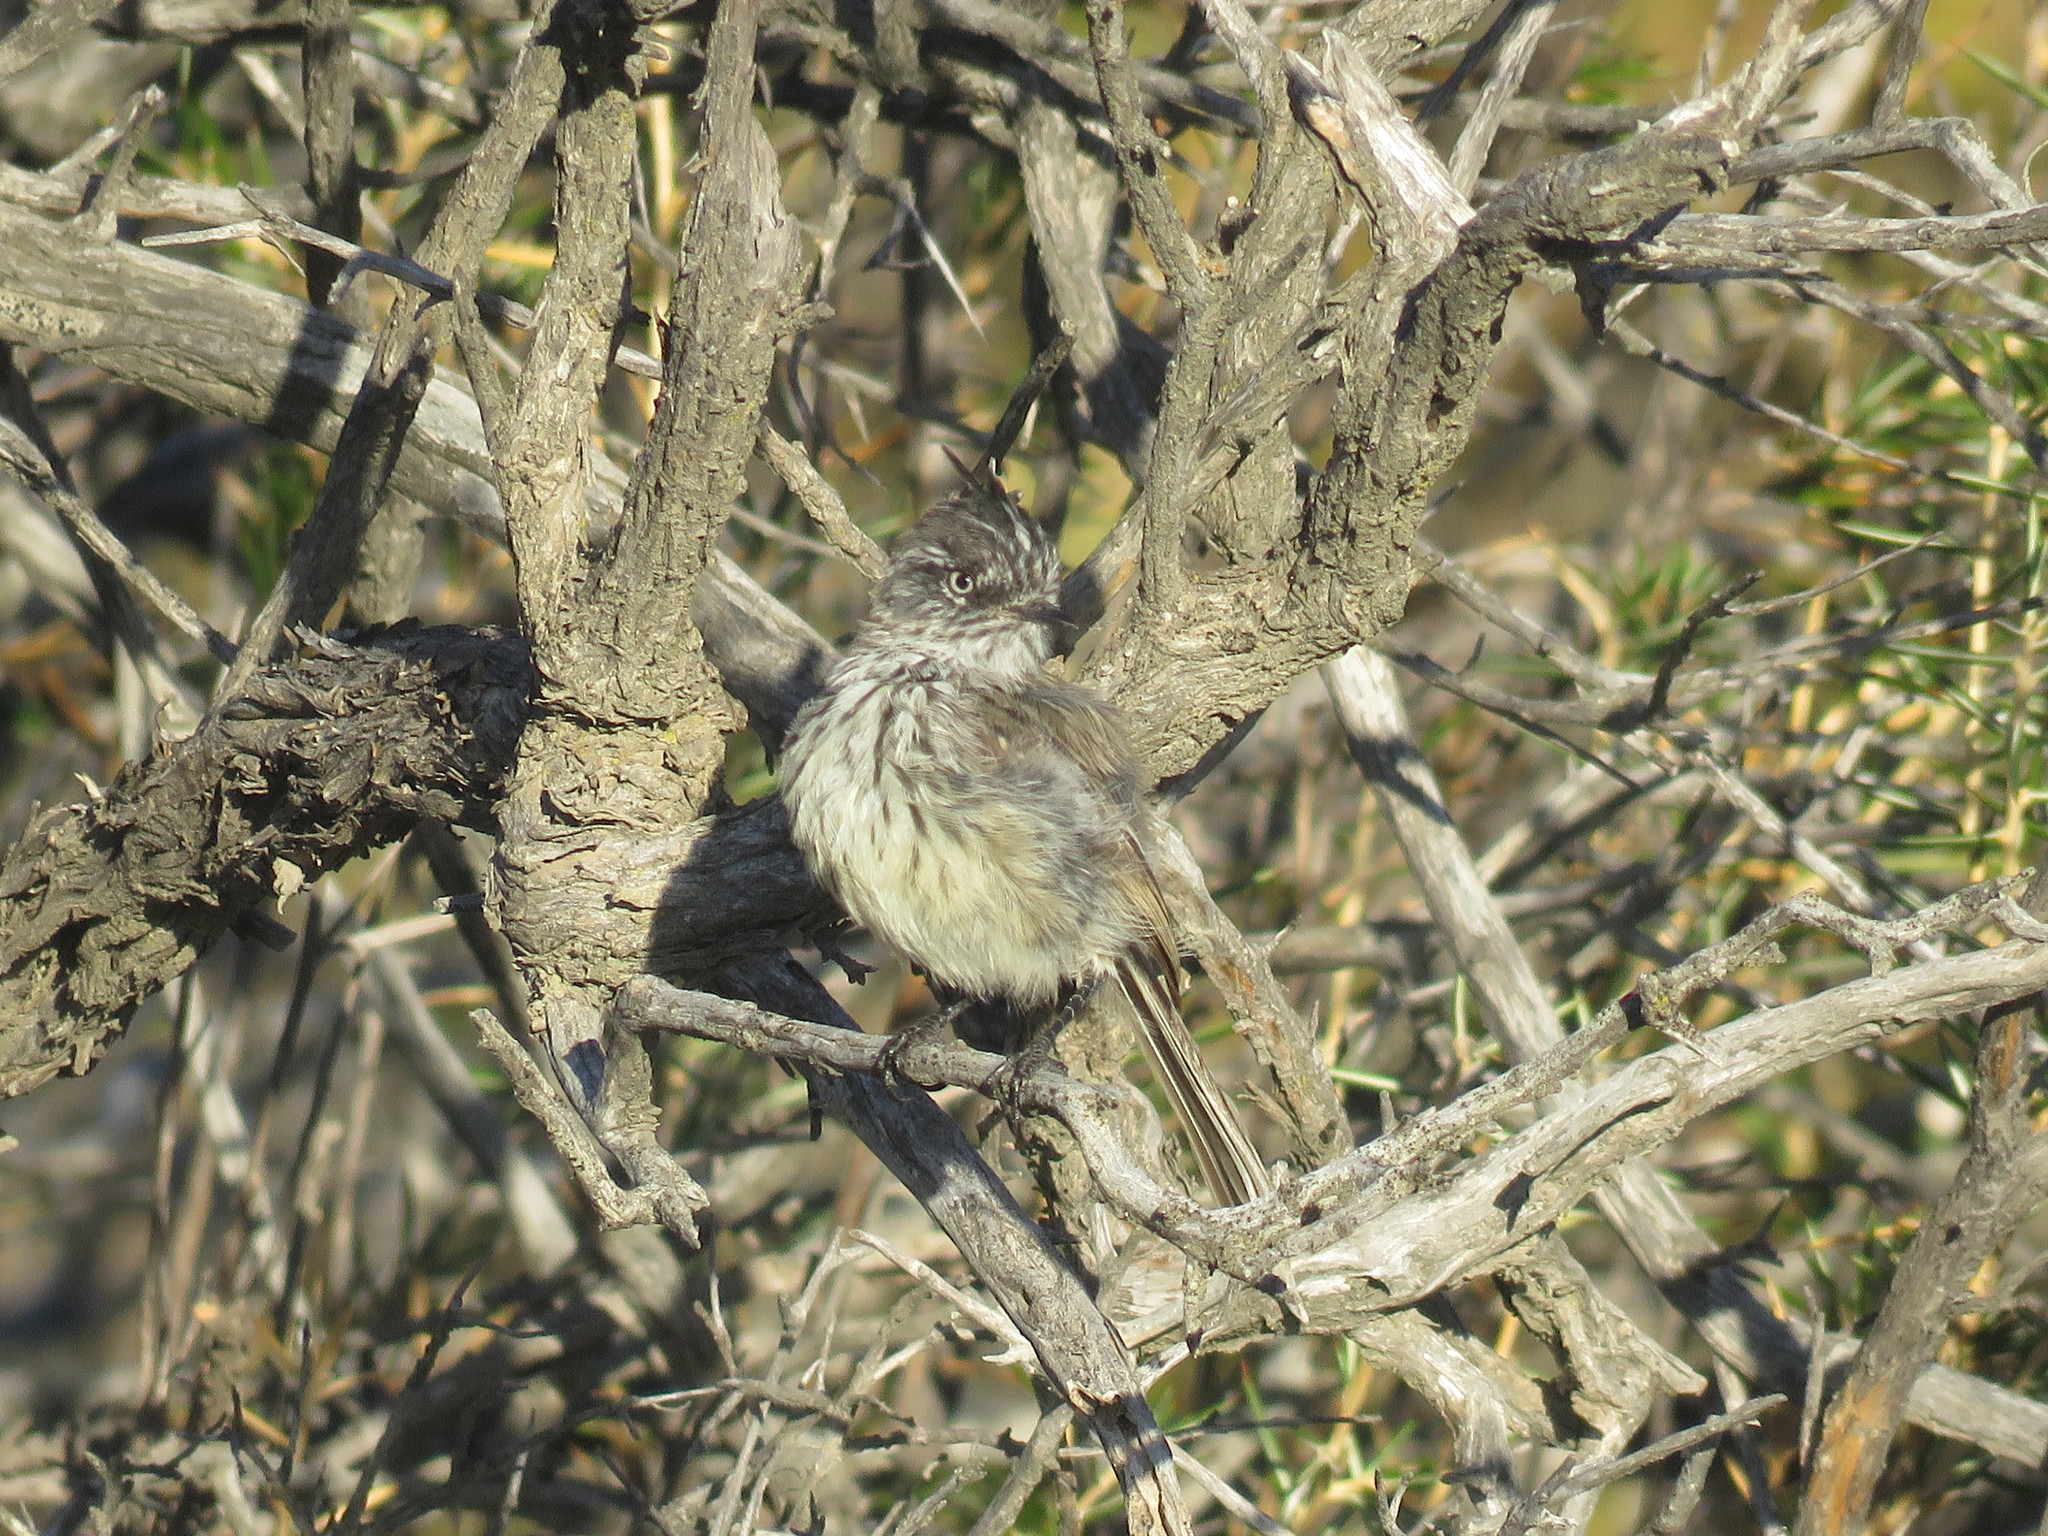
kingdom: Animalia
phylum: Chordata
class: Aves
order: Passeriformes
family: Tyrannidae
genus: Anairetes
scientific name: Anairetes parulus
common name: Tufted tit-tyrant
